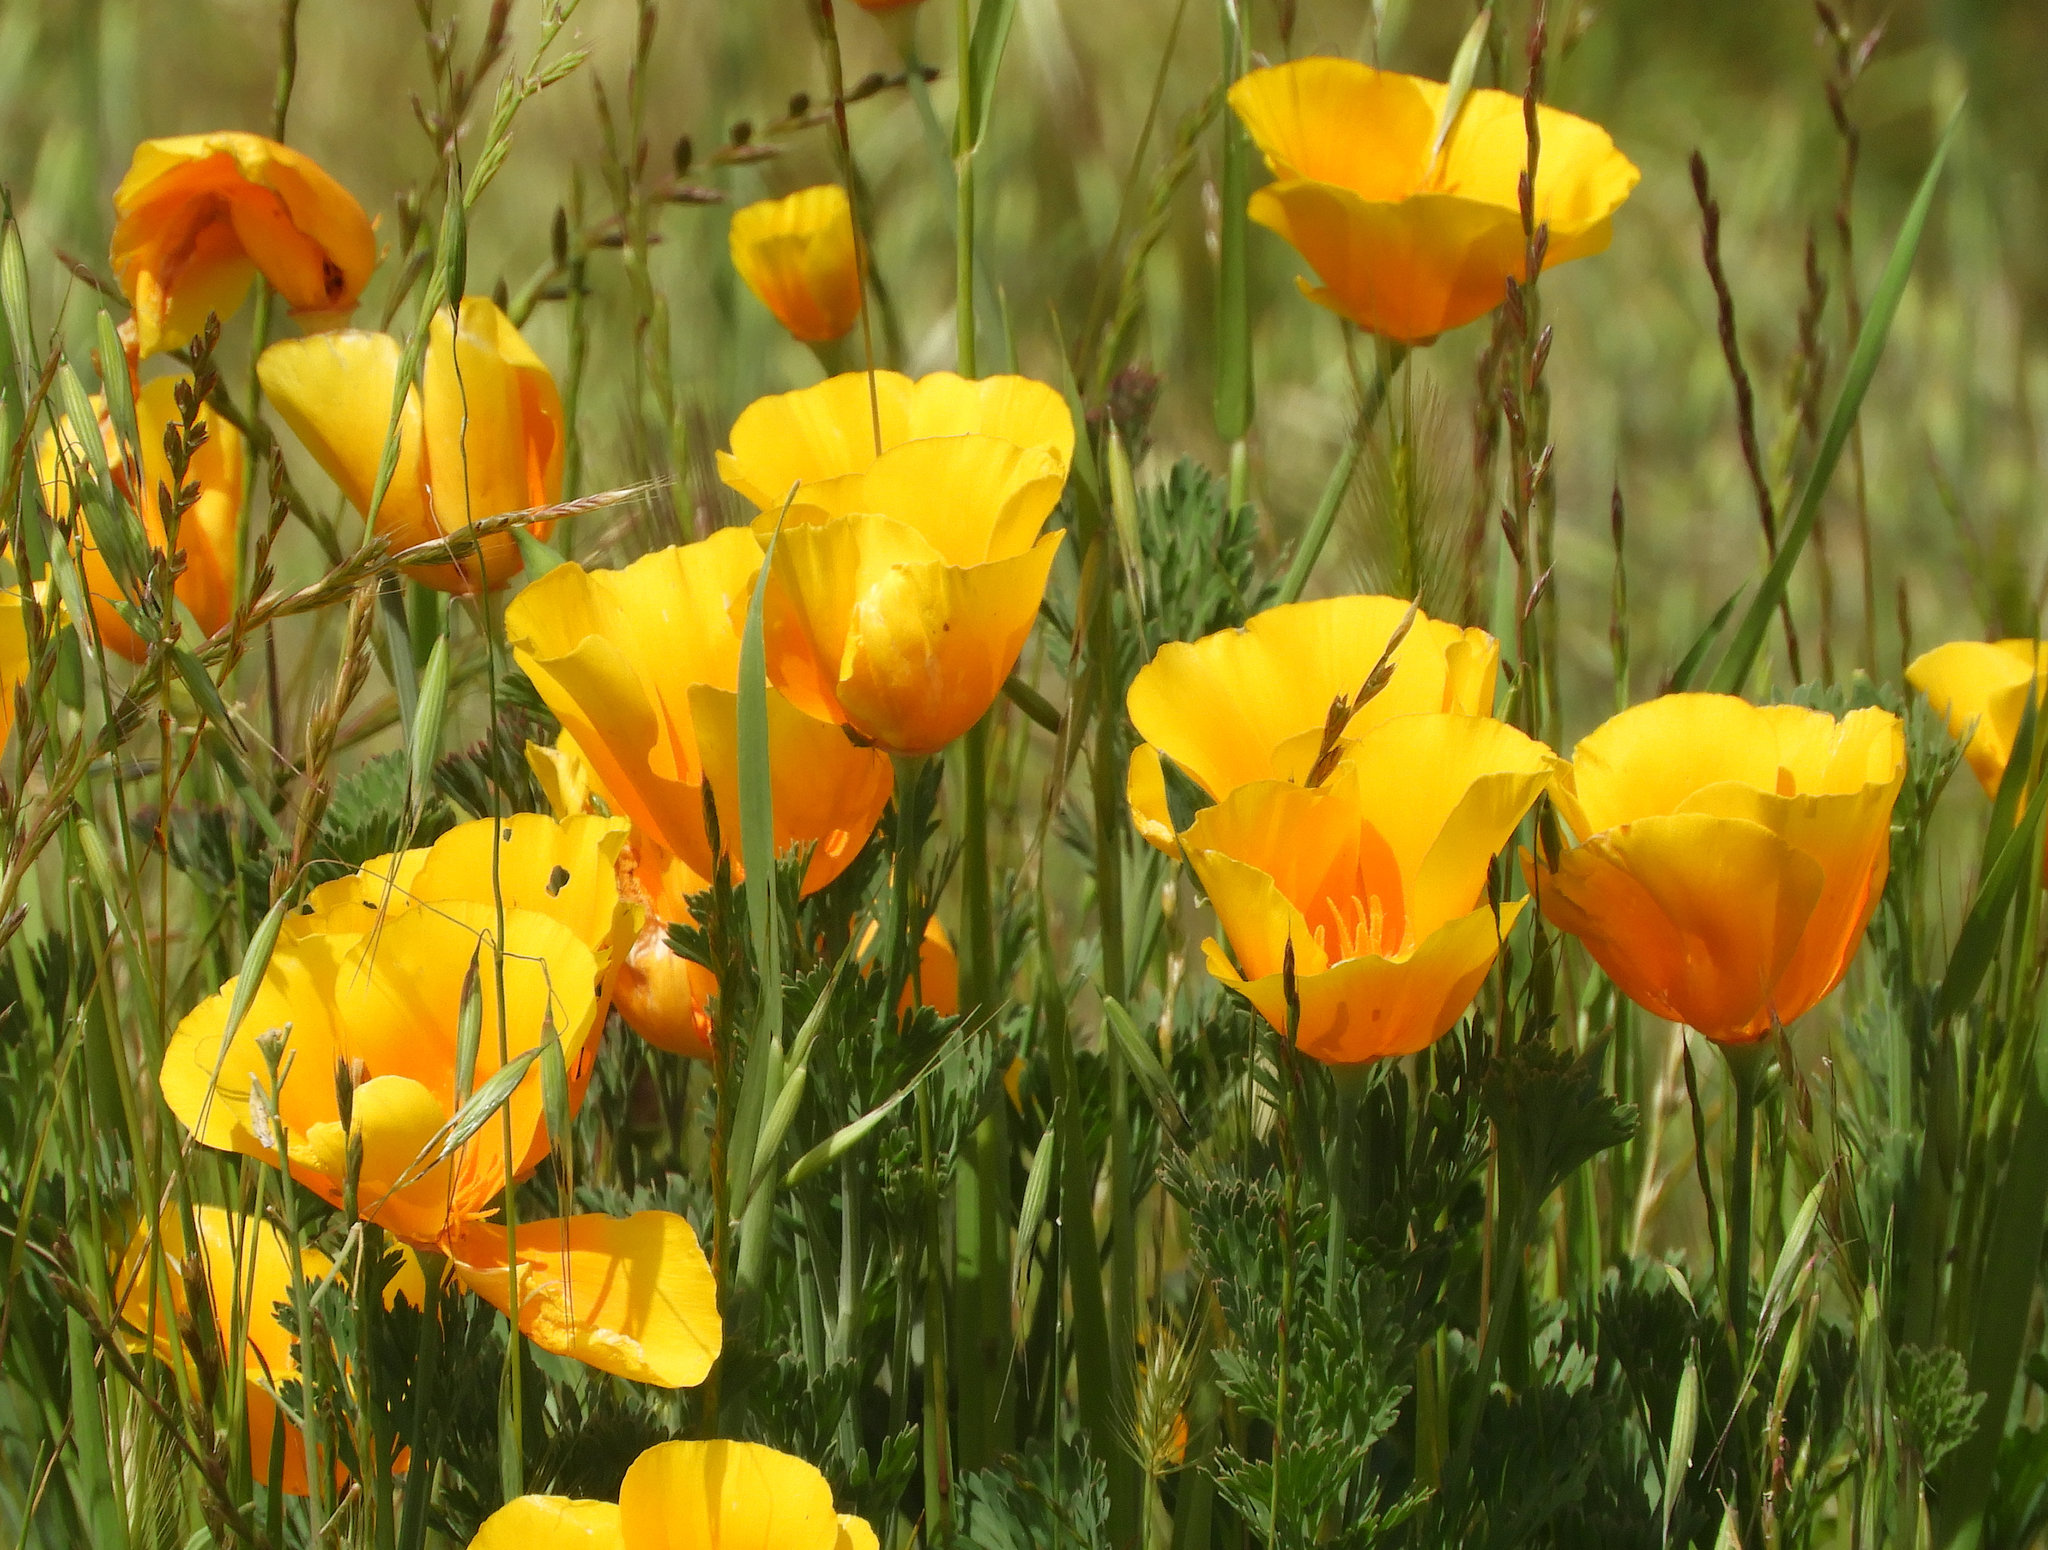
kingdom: Plantae
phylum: Tracheophyta
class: Magnoliopsida
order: Ranunculales
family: Papaveraceae
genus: Eschscholzia
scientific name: Eschscholzia californica
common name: California poppy
